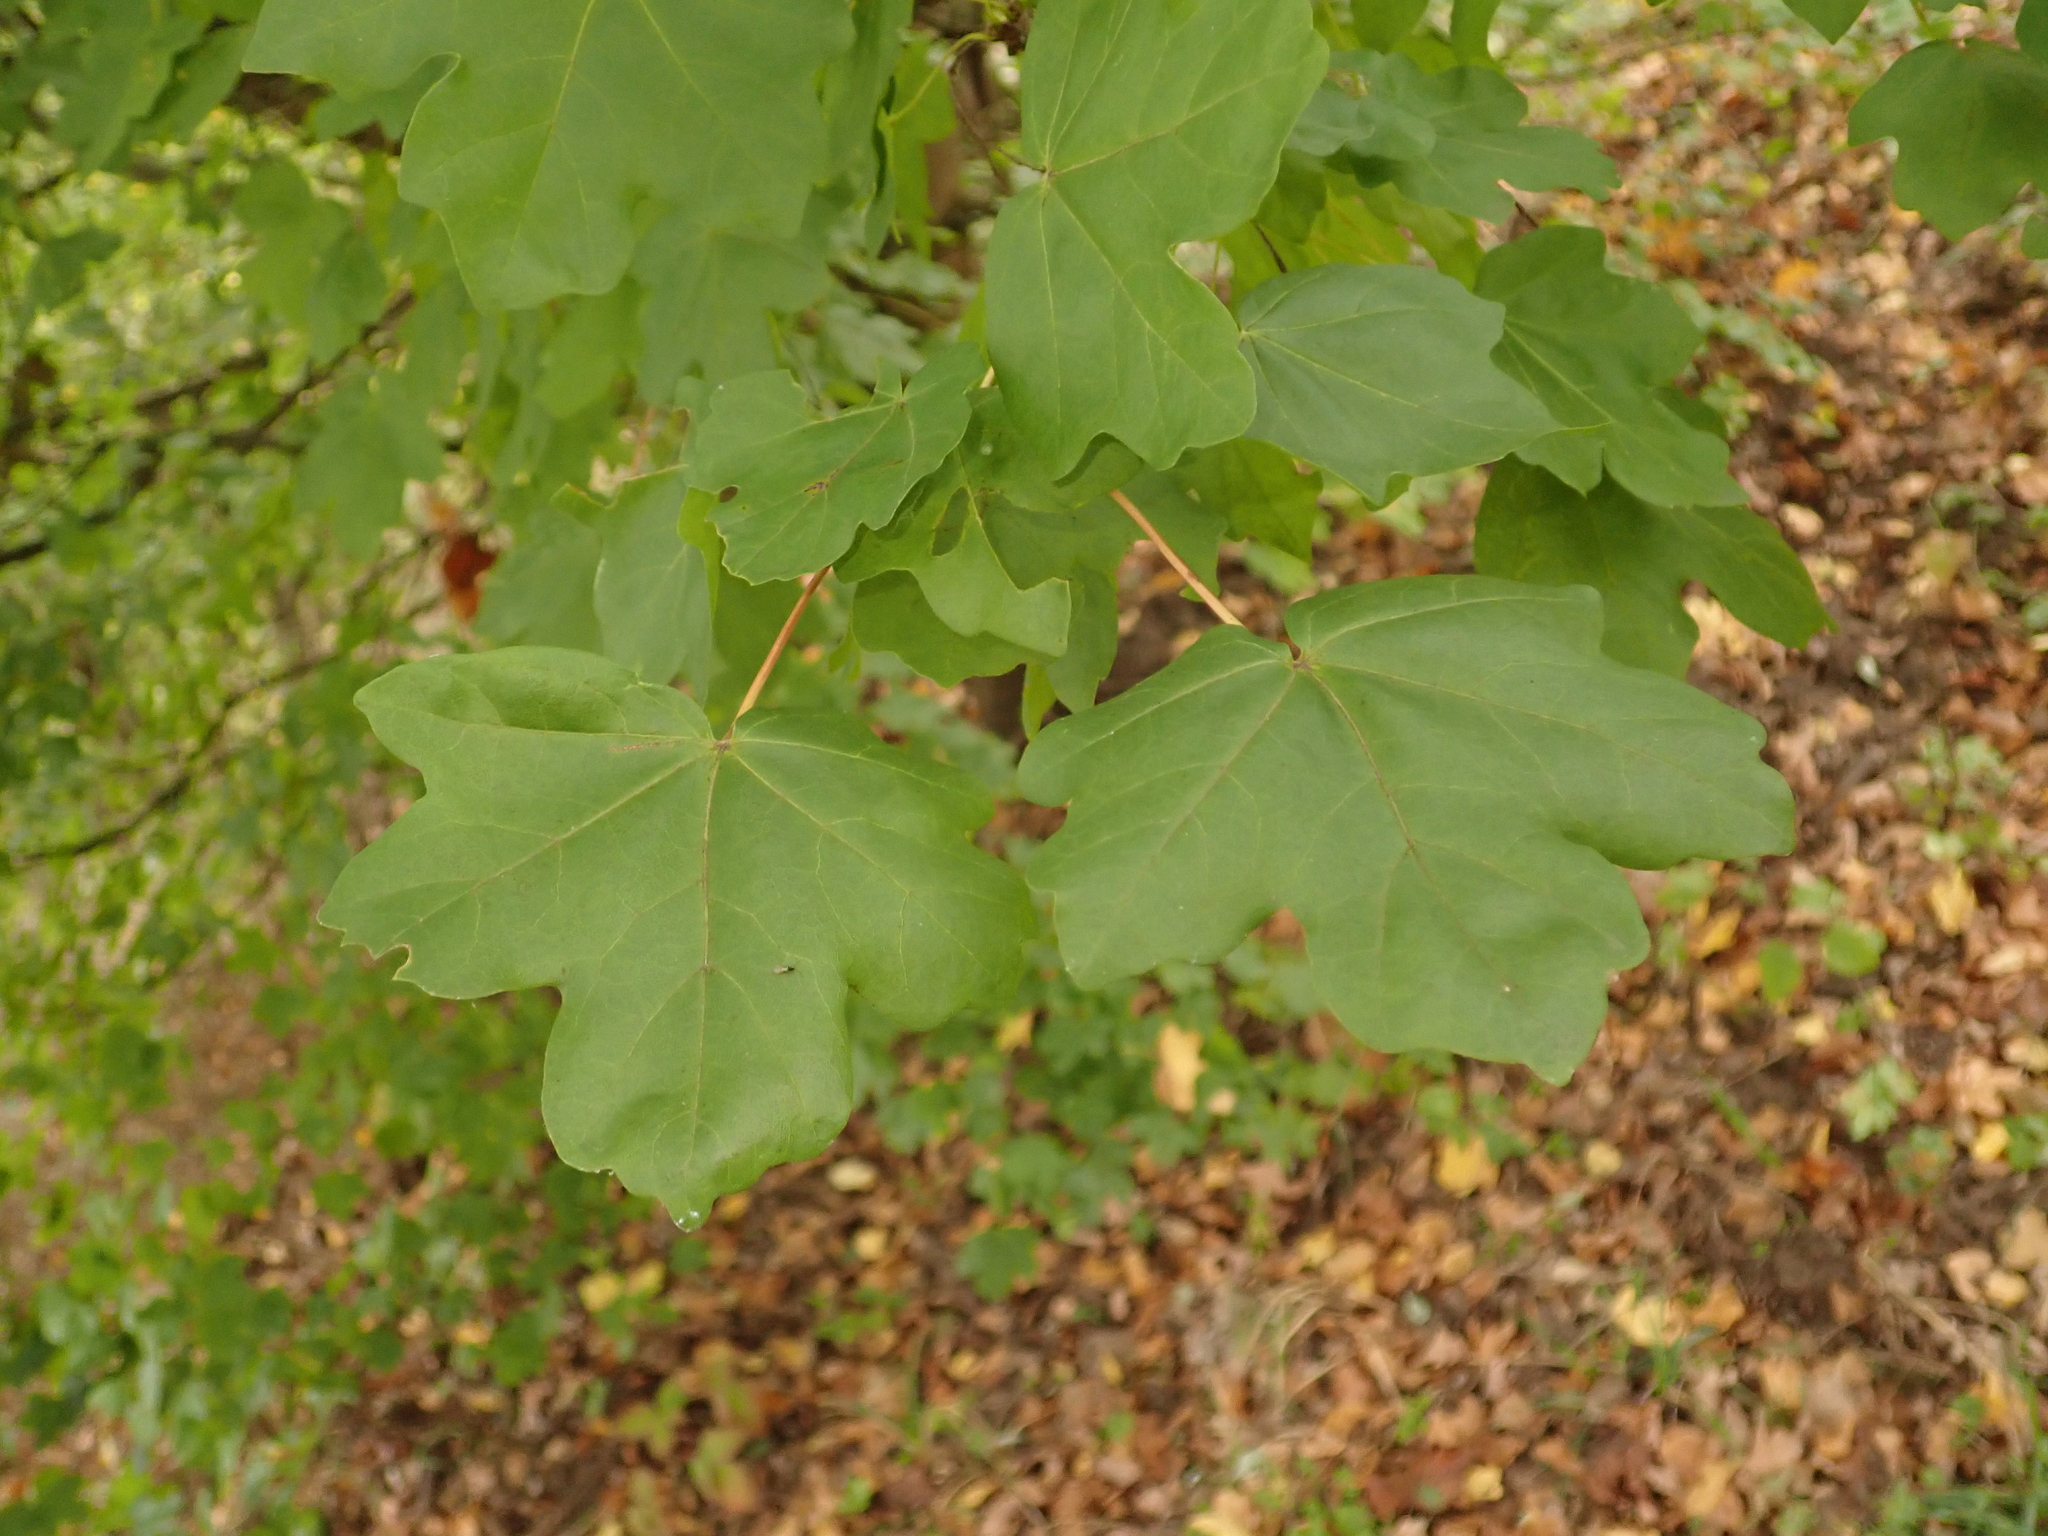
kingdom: Plantae
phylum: Tracheophyta
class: Magnoliopsida
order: Sapindales
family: Sapindaceae
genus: Acer
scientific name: Acer campestre
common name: Field maple
